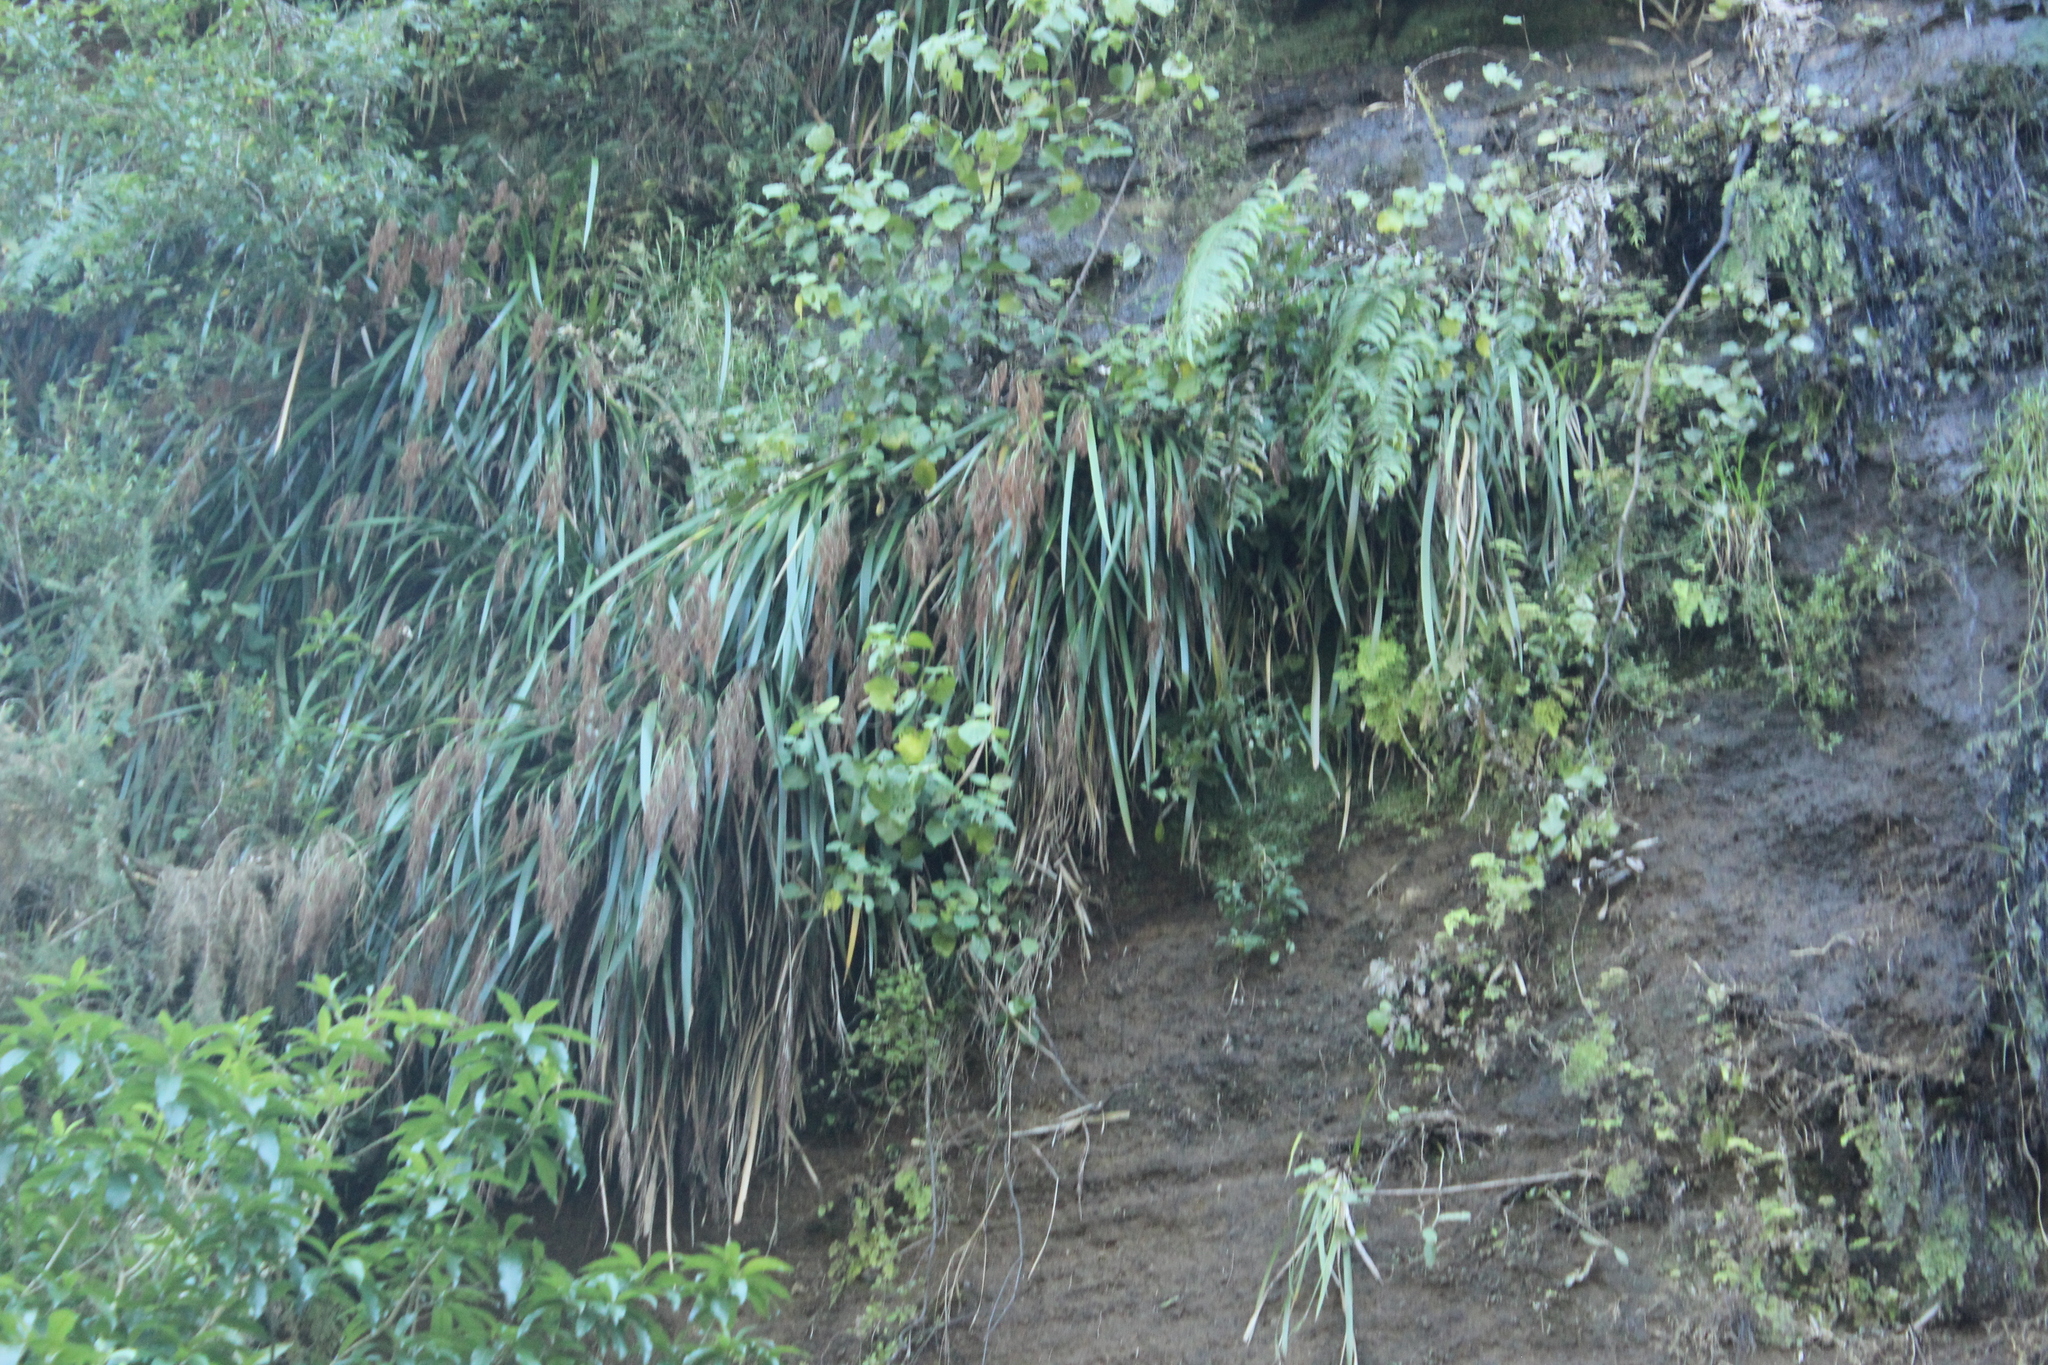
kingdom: Plantae
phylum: Tracheophyta
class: Liliopsida
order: Poales
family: Cyperaceae
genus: Machaerina
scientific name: Machaerina sinclairii
